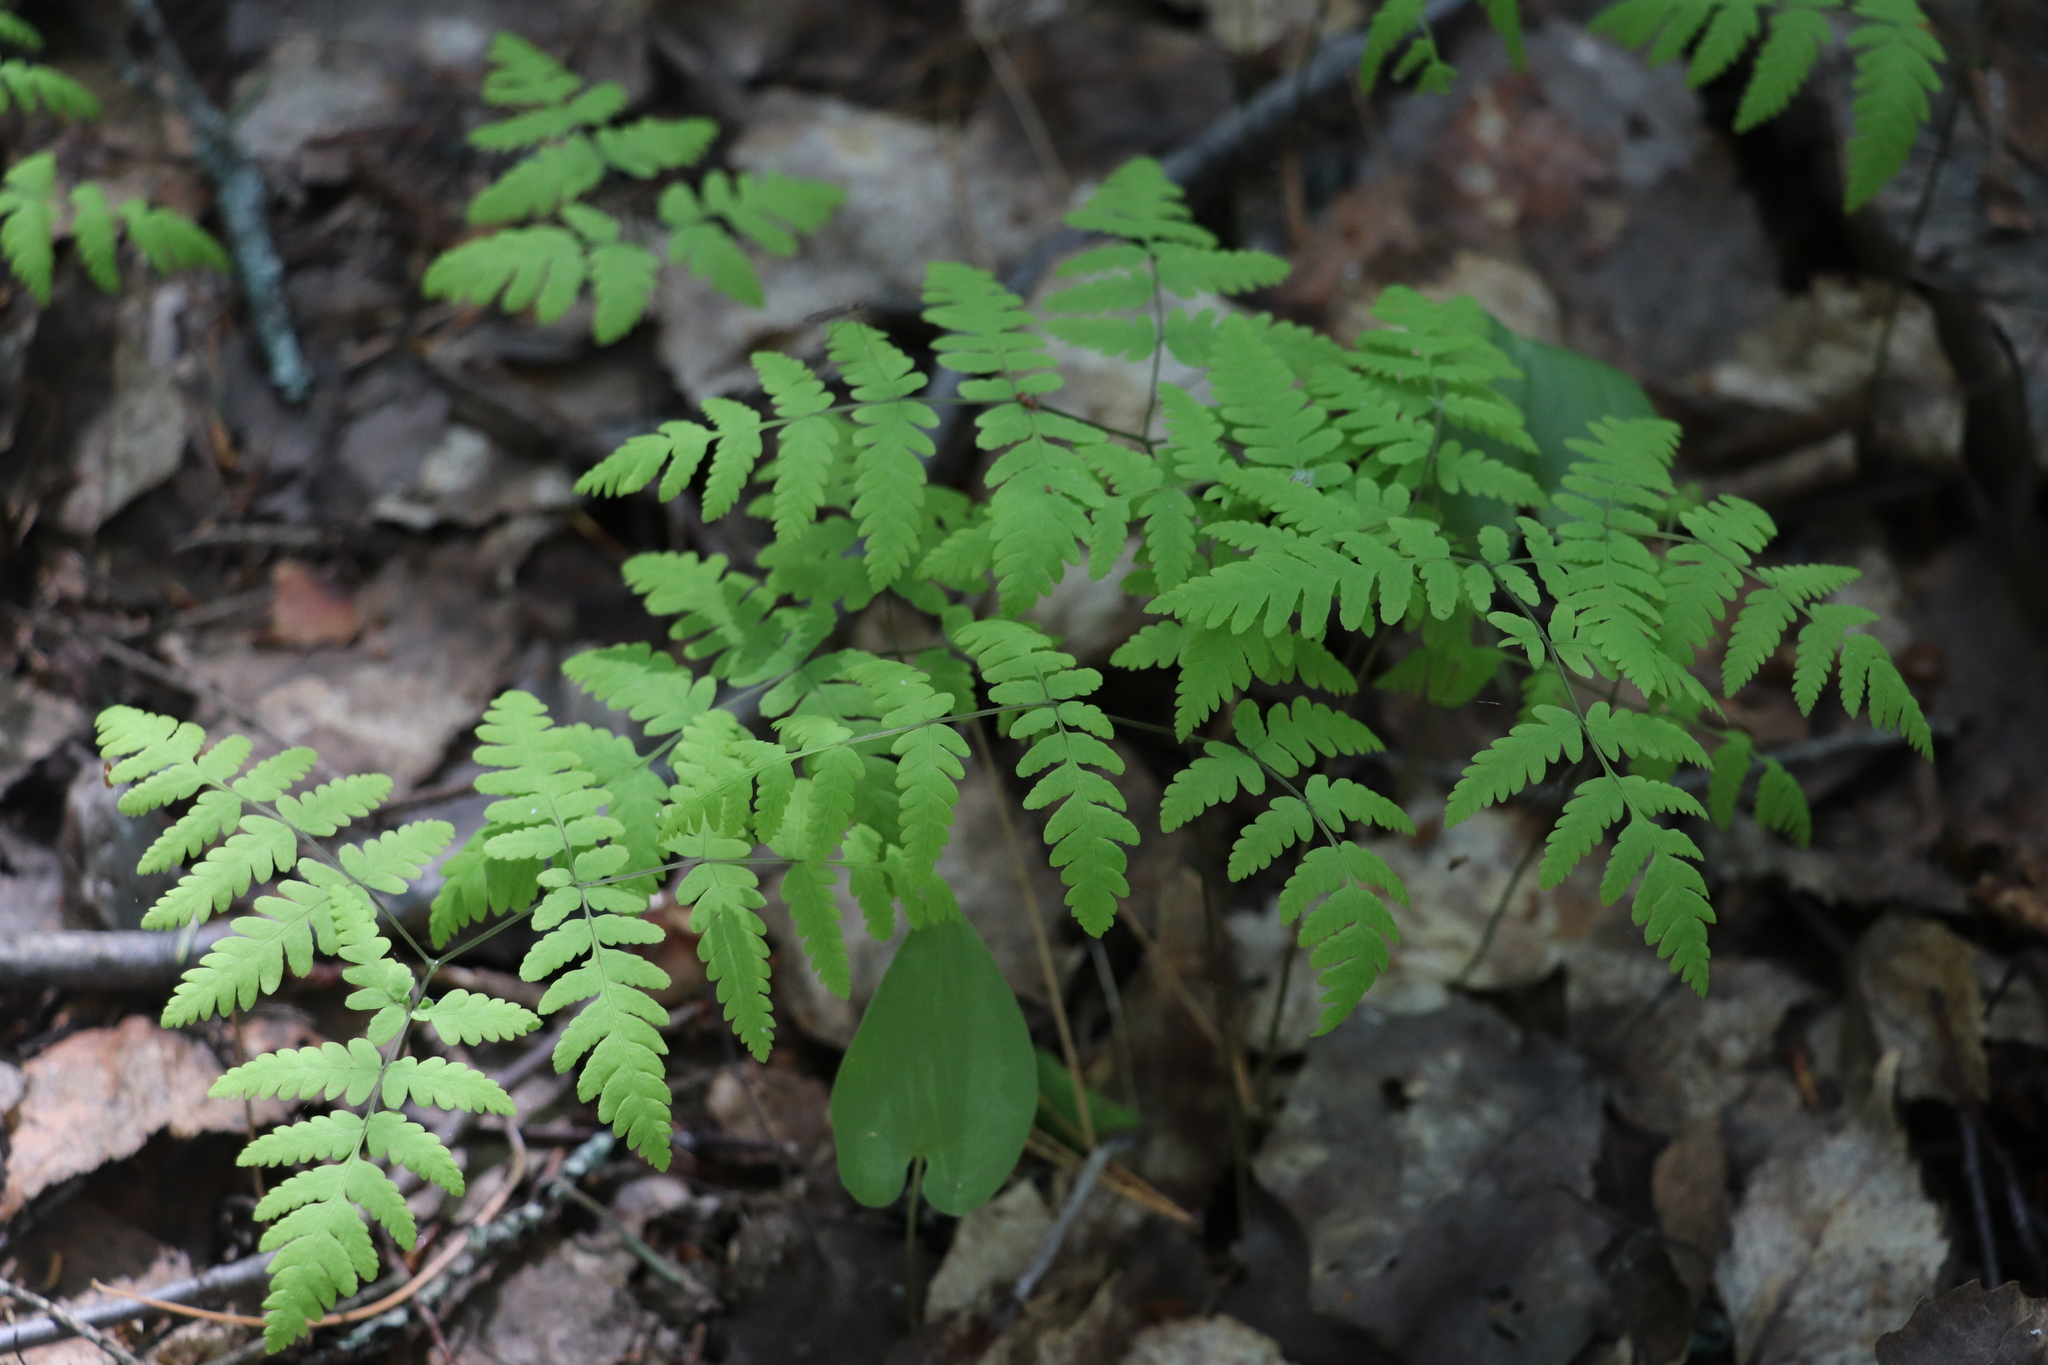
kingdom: Plantae
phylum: Tracheophyta
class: Polypodiopsida
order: Polypodiales
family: Cystopteridaceae
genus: Gymnocarpium
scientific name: Gymnocarpium dryopteris
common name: Oak fern
